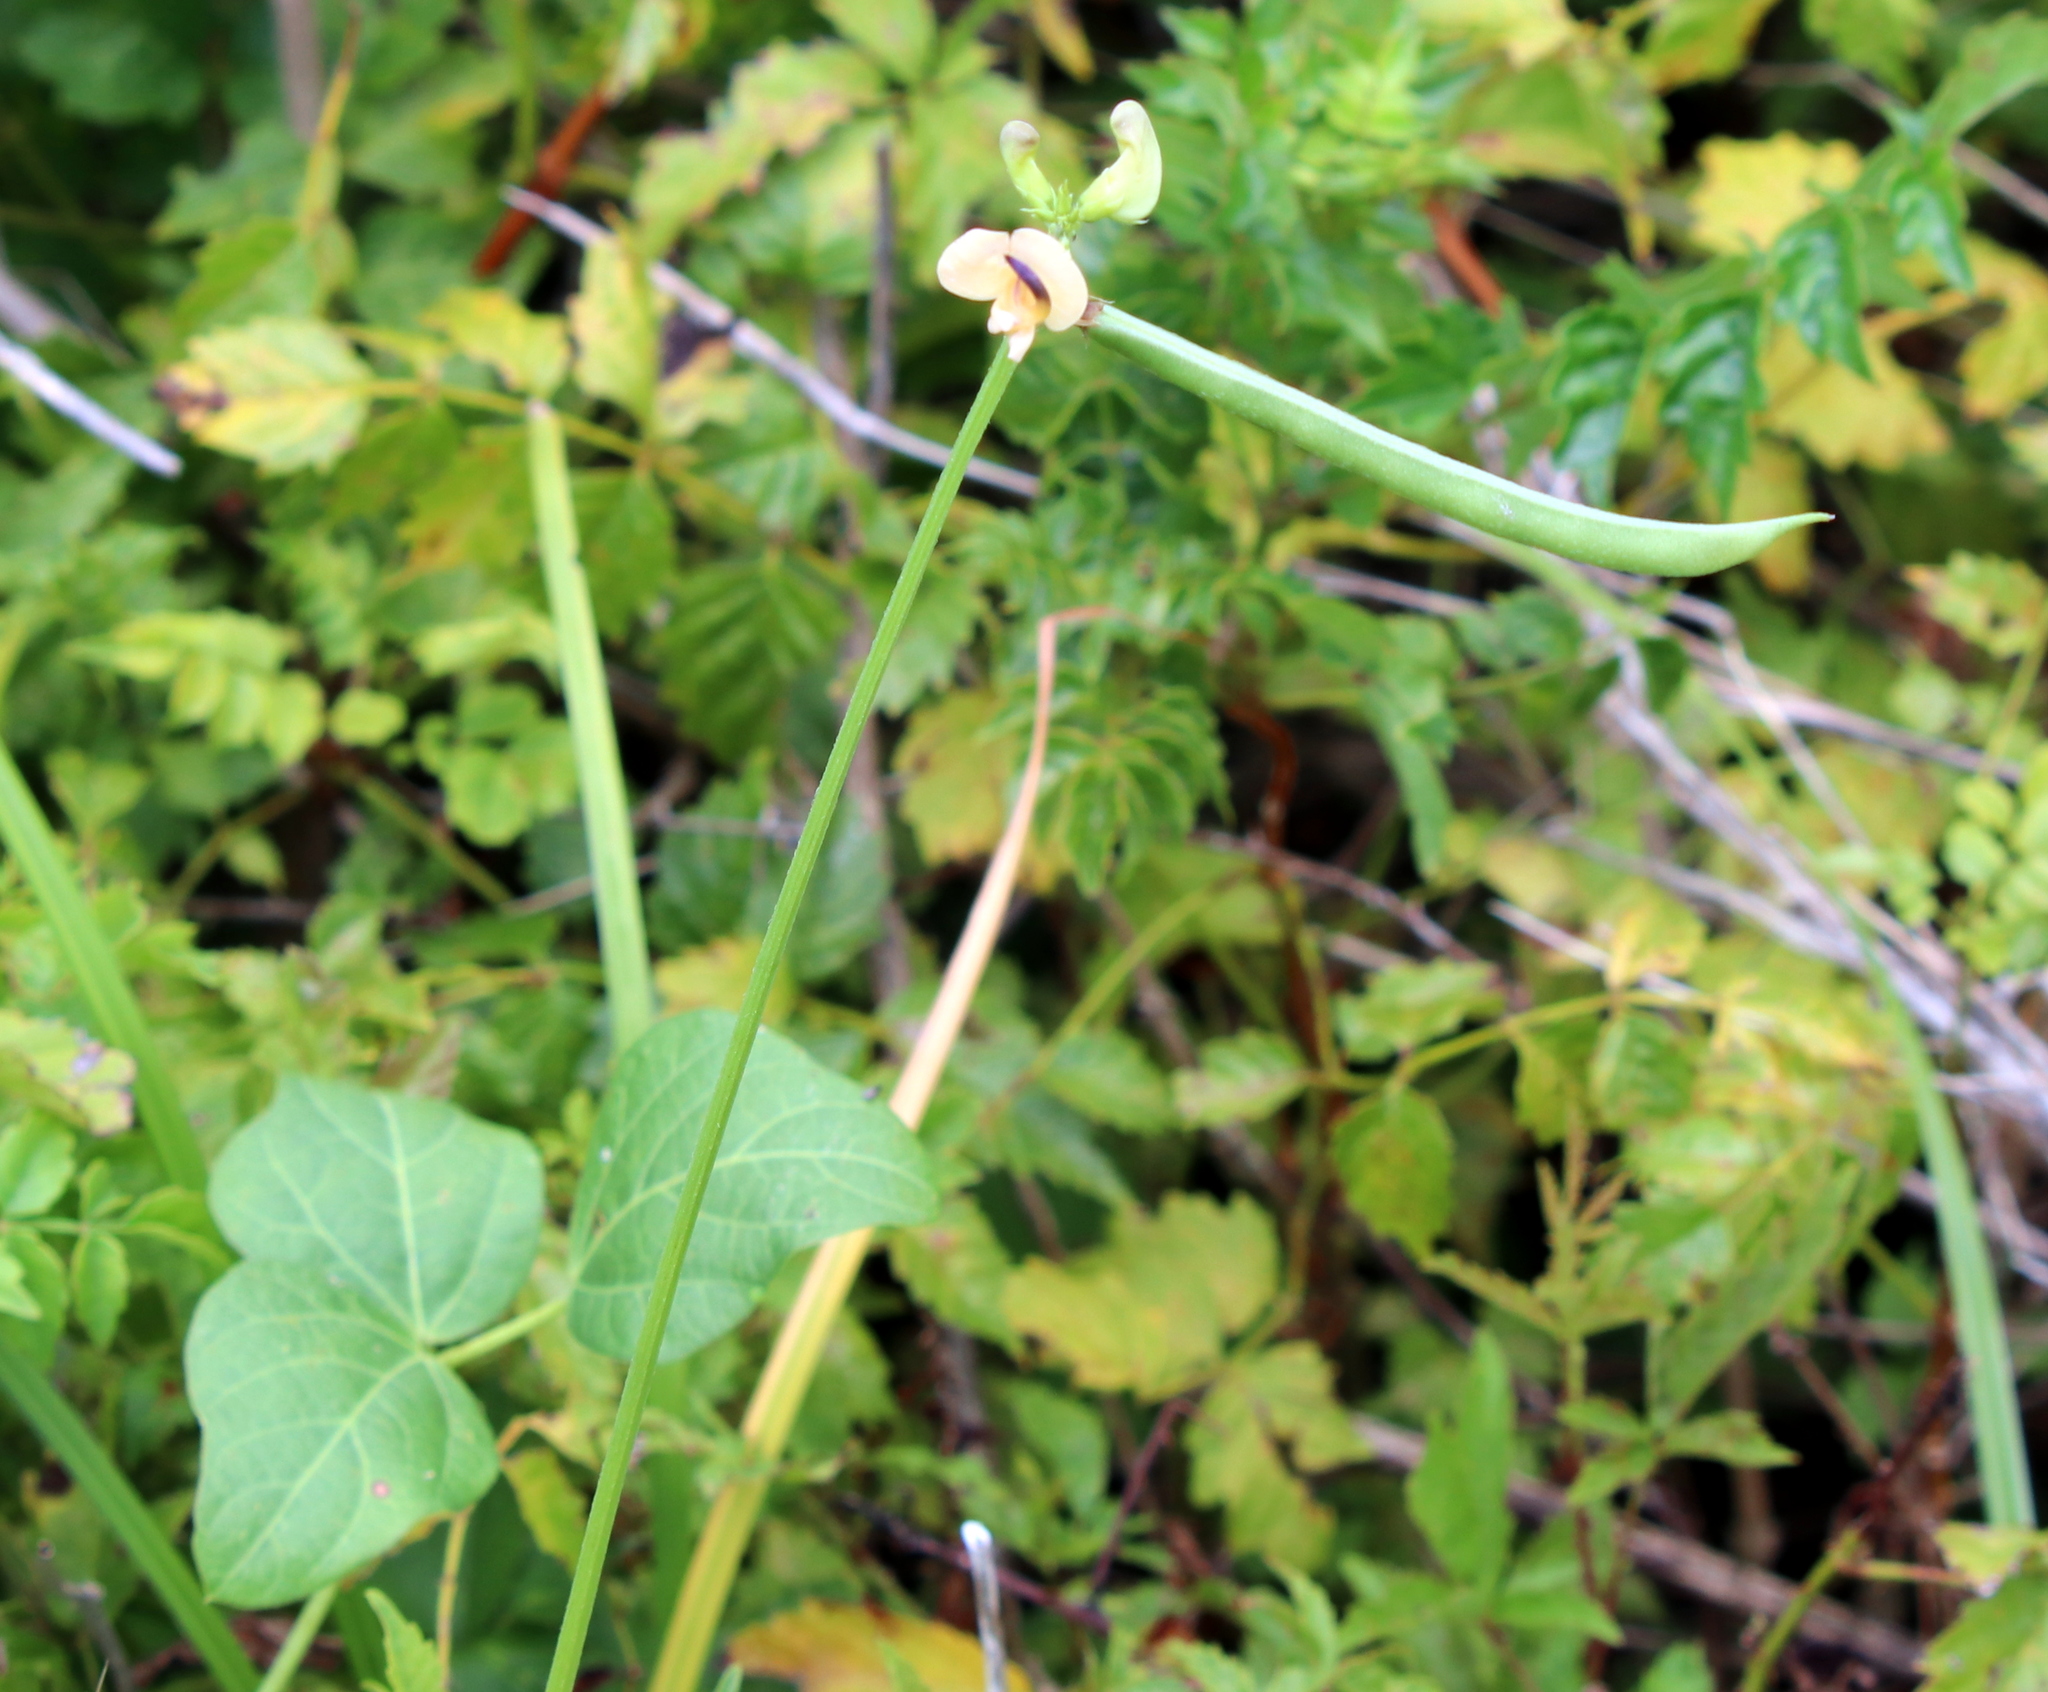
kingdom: Plantae
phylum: Tracheophyta
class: Magnoliopsida
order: Fabales
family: Fabaceae
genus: Strophostyles
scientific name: Strophostyles helvola
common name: Trailing wild bean
